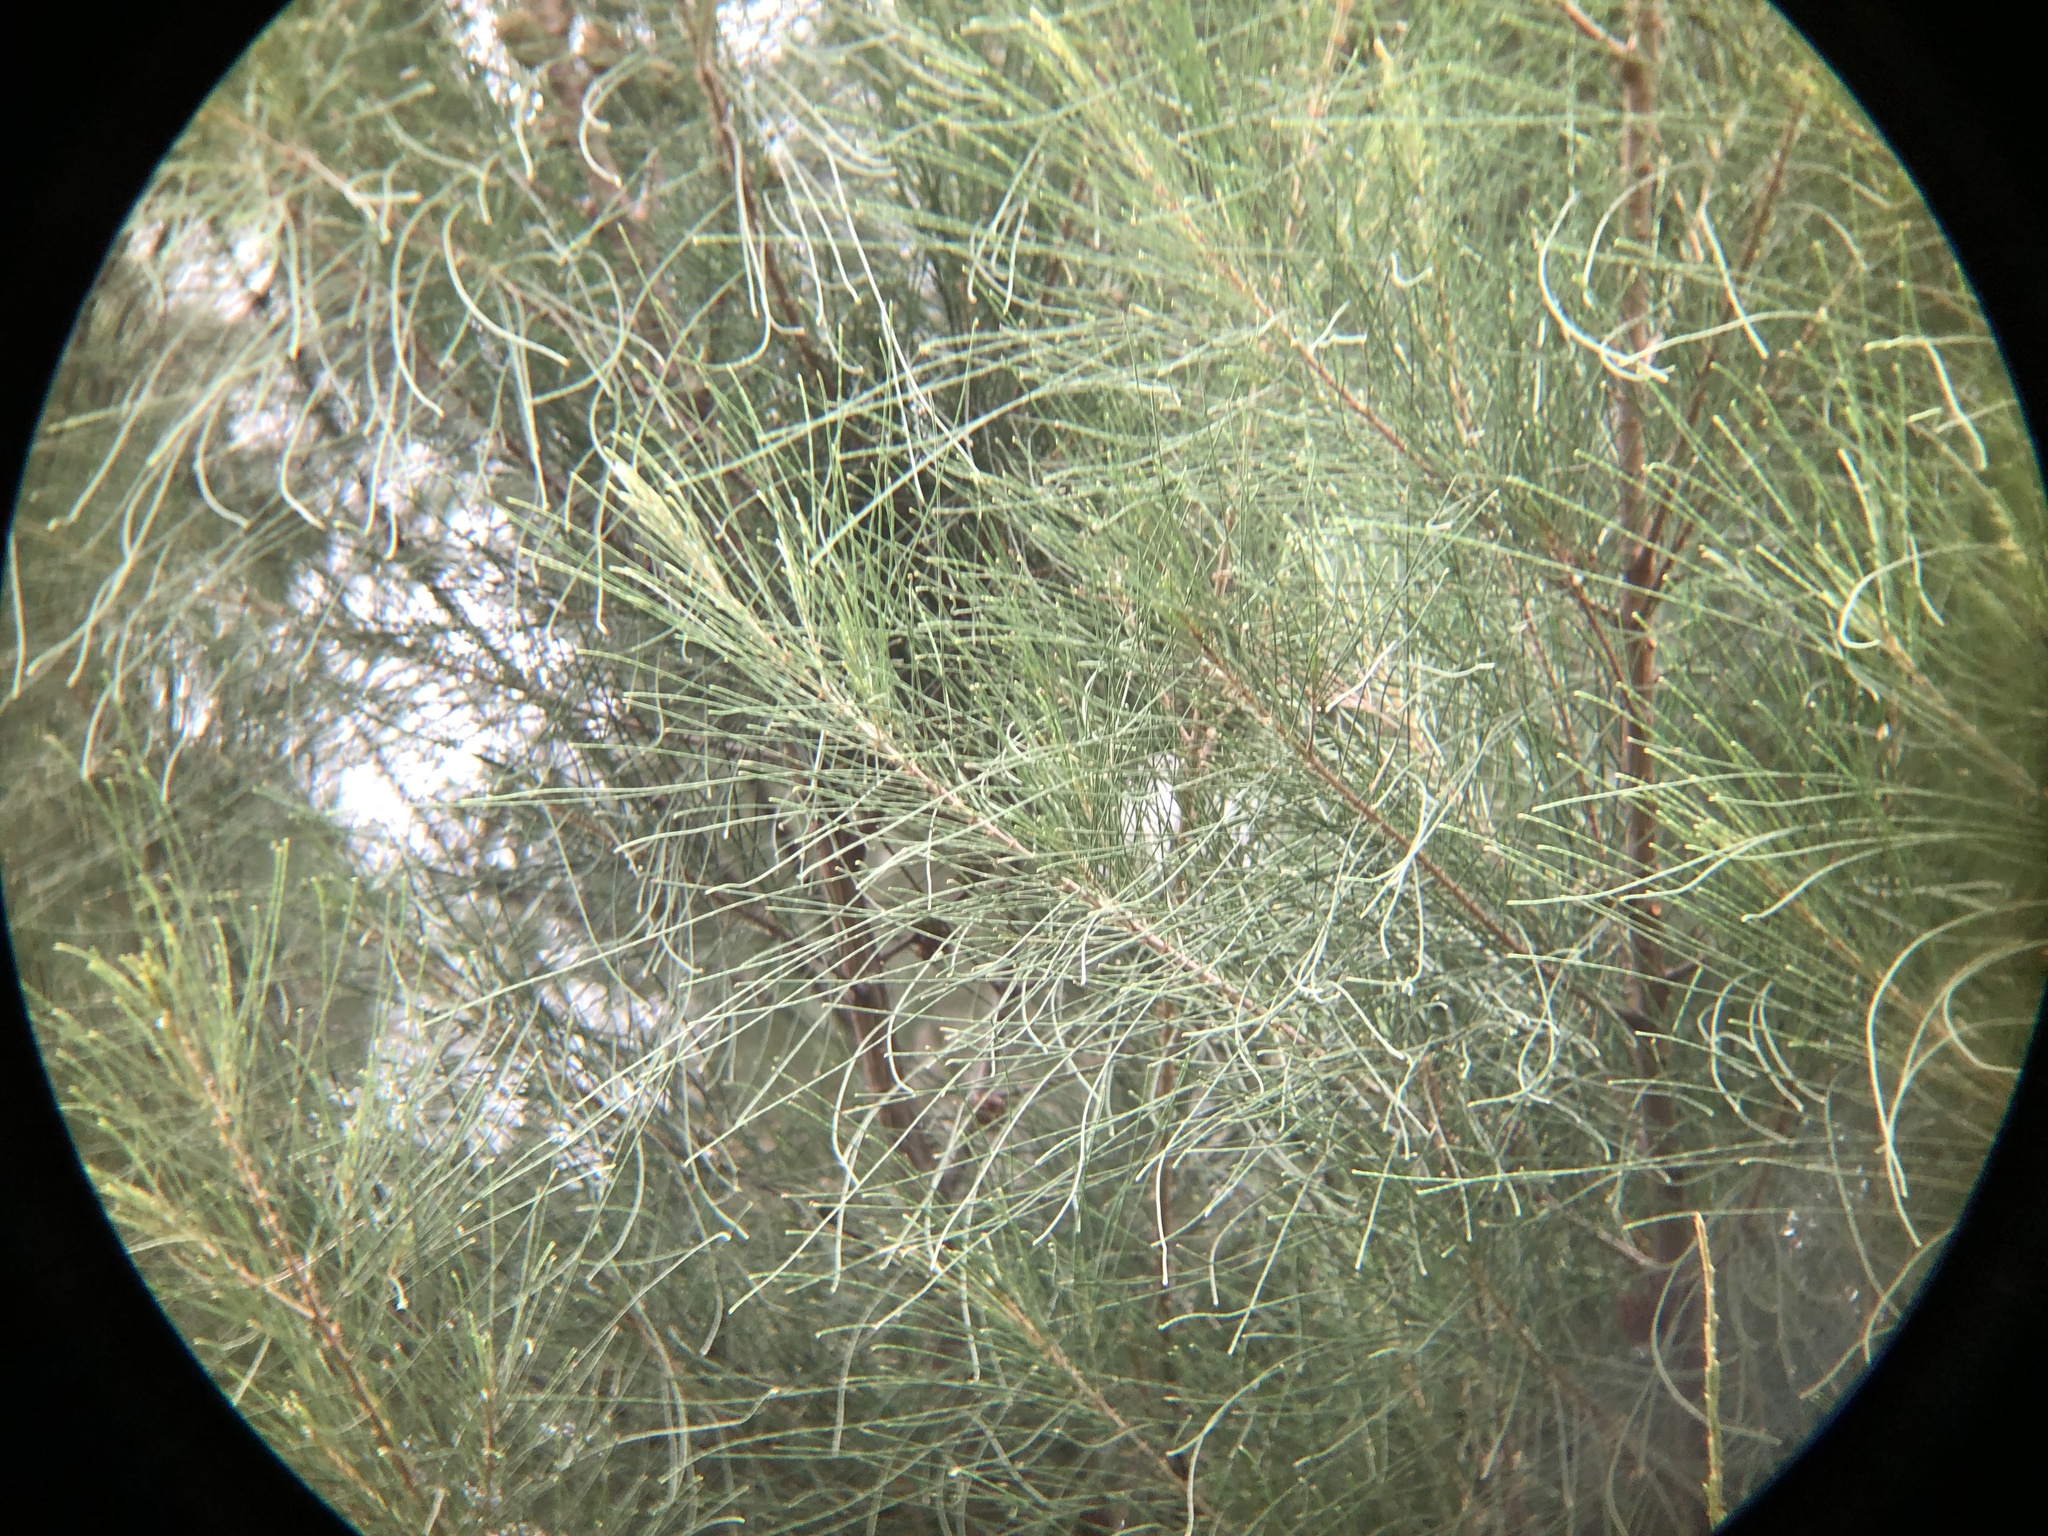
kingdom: Animalia
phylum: Chordata
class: Aves
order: Passeriformes
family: Polioptilidae
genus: Polioptila
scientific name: Polioptila caerulea
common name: Blue-gray gnatcatcher
